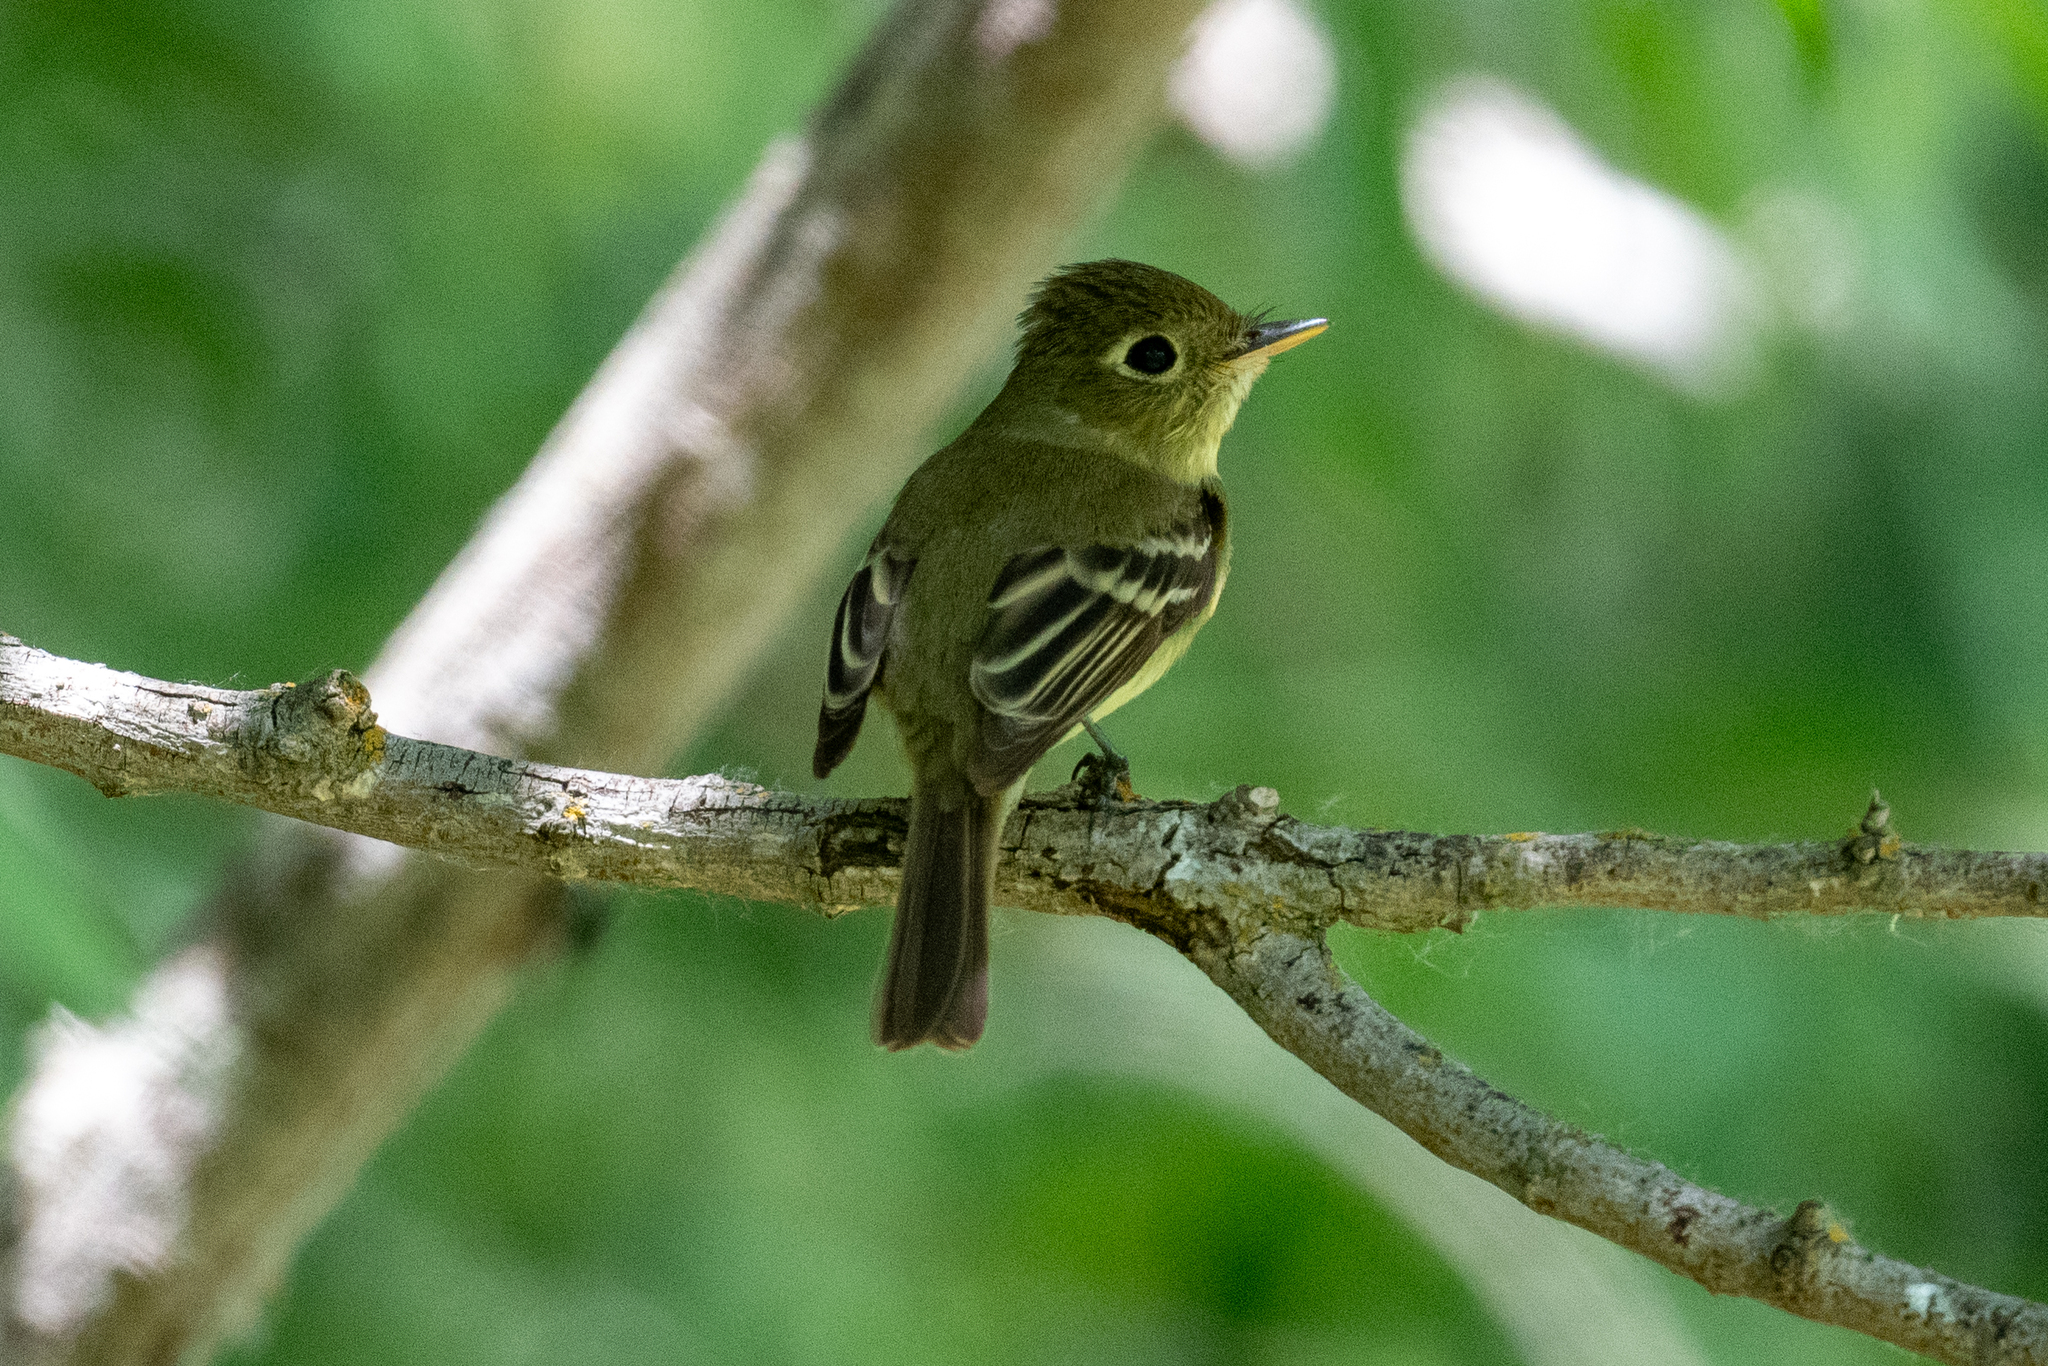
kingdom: Animalia
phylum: Chordata
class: Aves
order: Passeriformes
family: Tyrannidae
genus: Empidonax
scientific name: Empidonax difficilis
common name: Pacific-slope flycatcher
